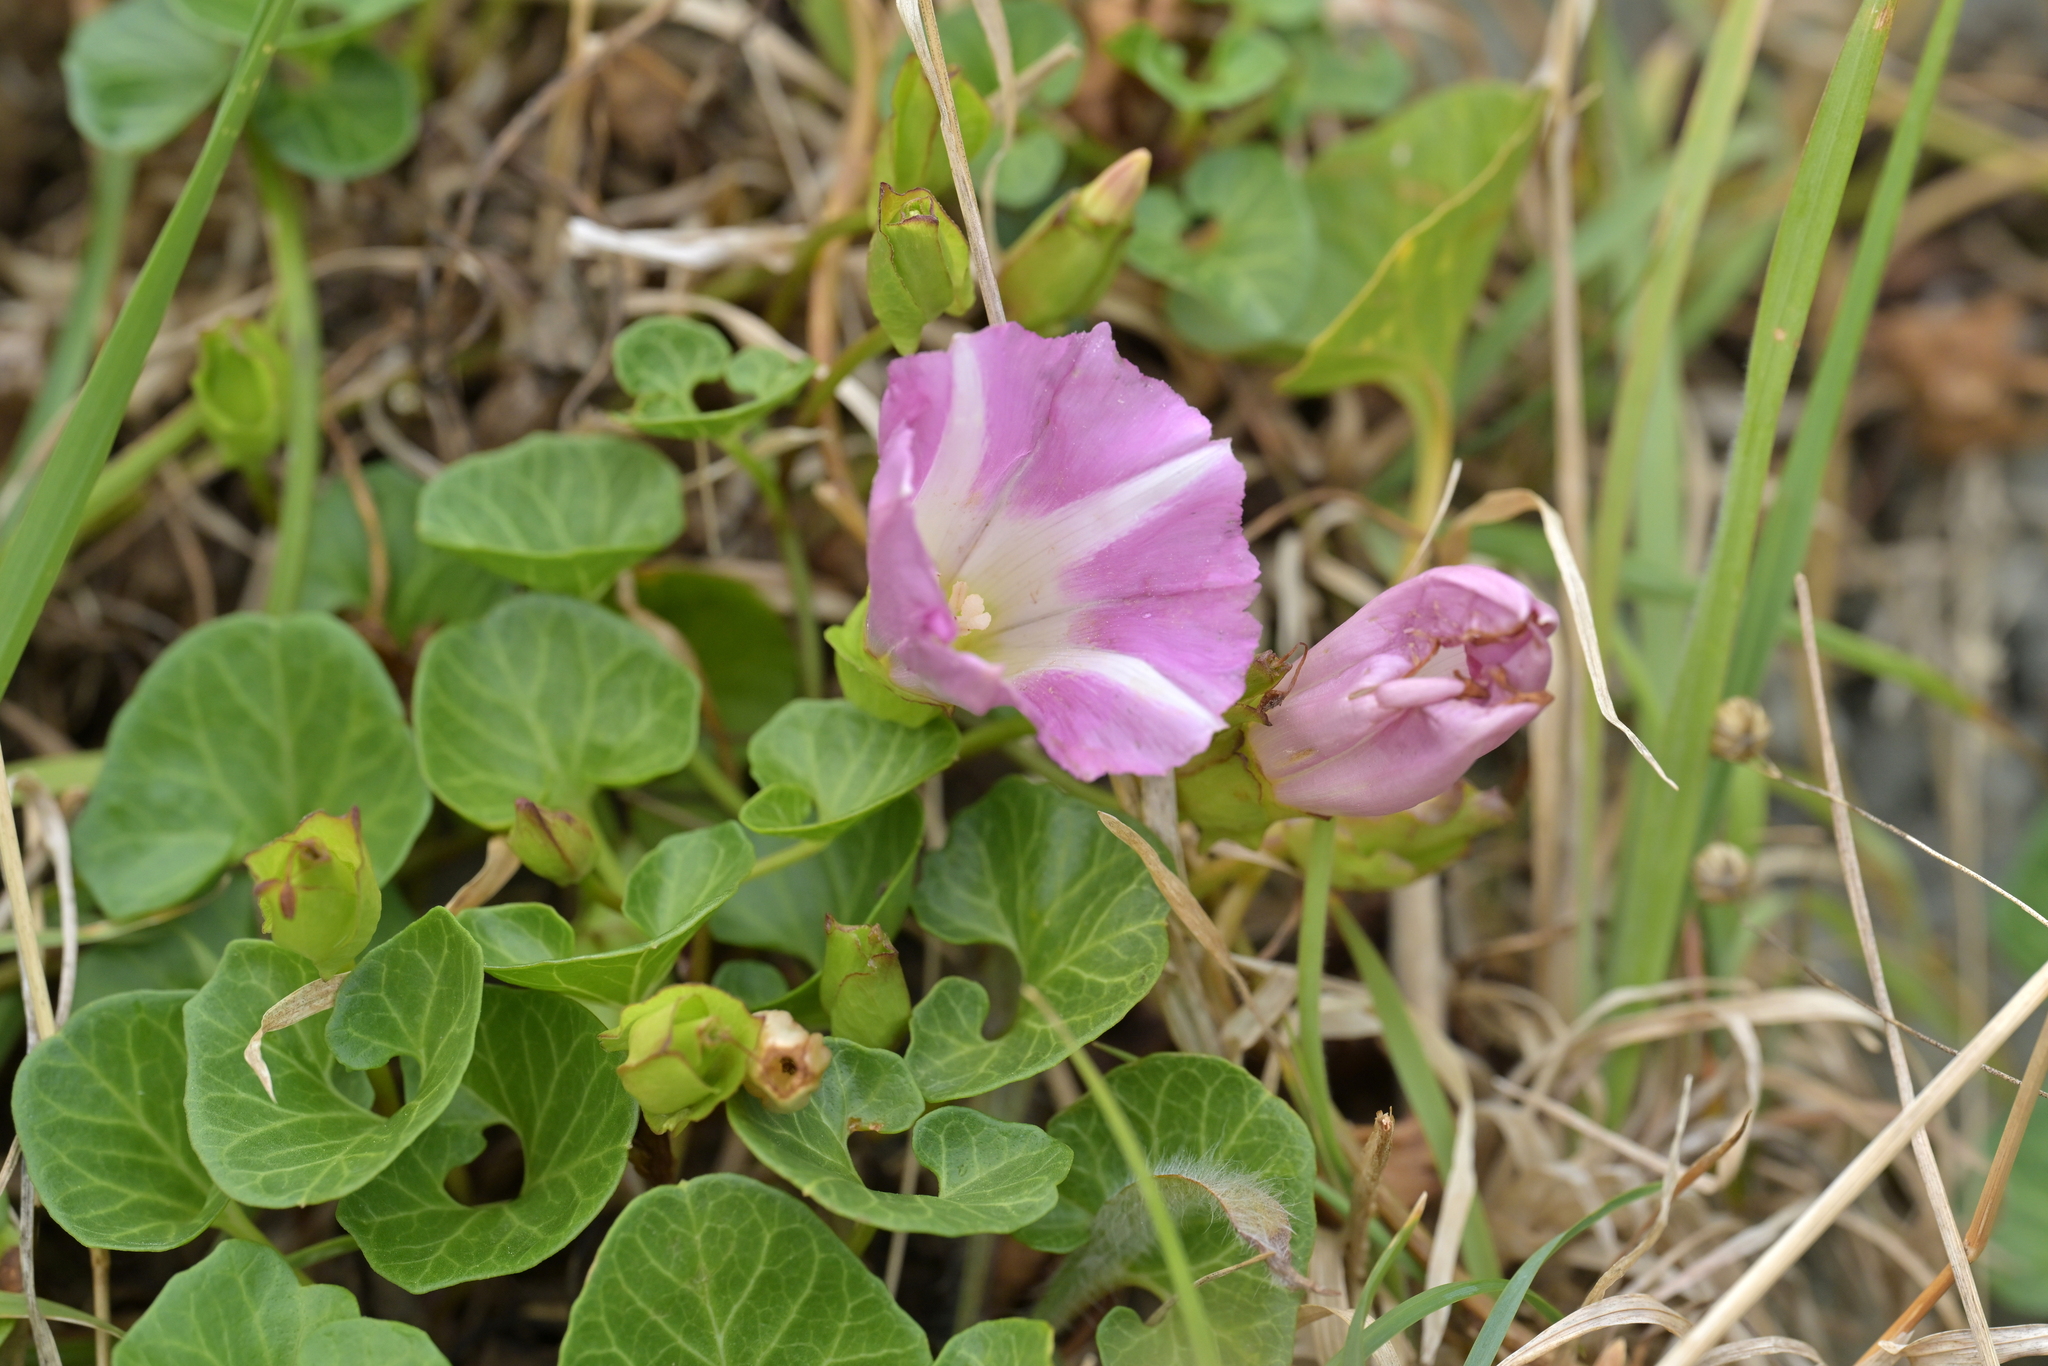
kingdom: Plantae
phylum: Tracheophyta
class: Magnoliopsida
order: Solanales
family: Convolvulaceae
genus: Calystegia
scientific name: Calystegia soldanella
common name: Sea bindweed
